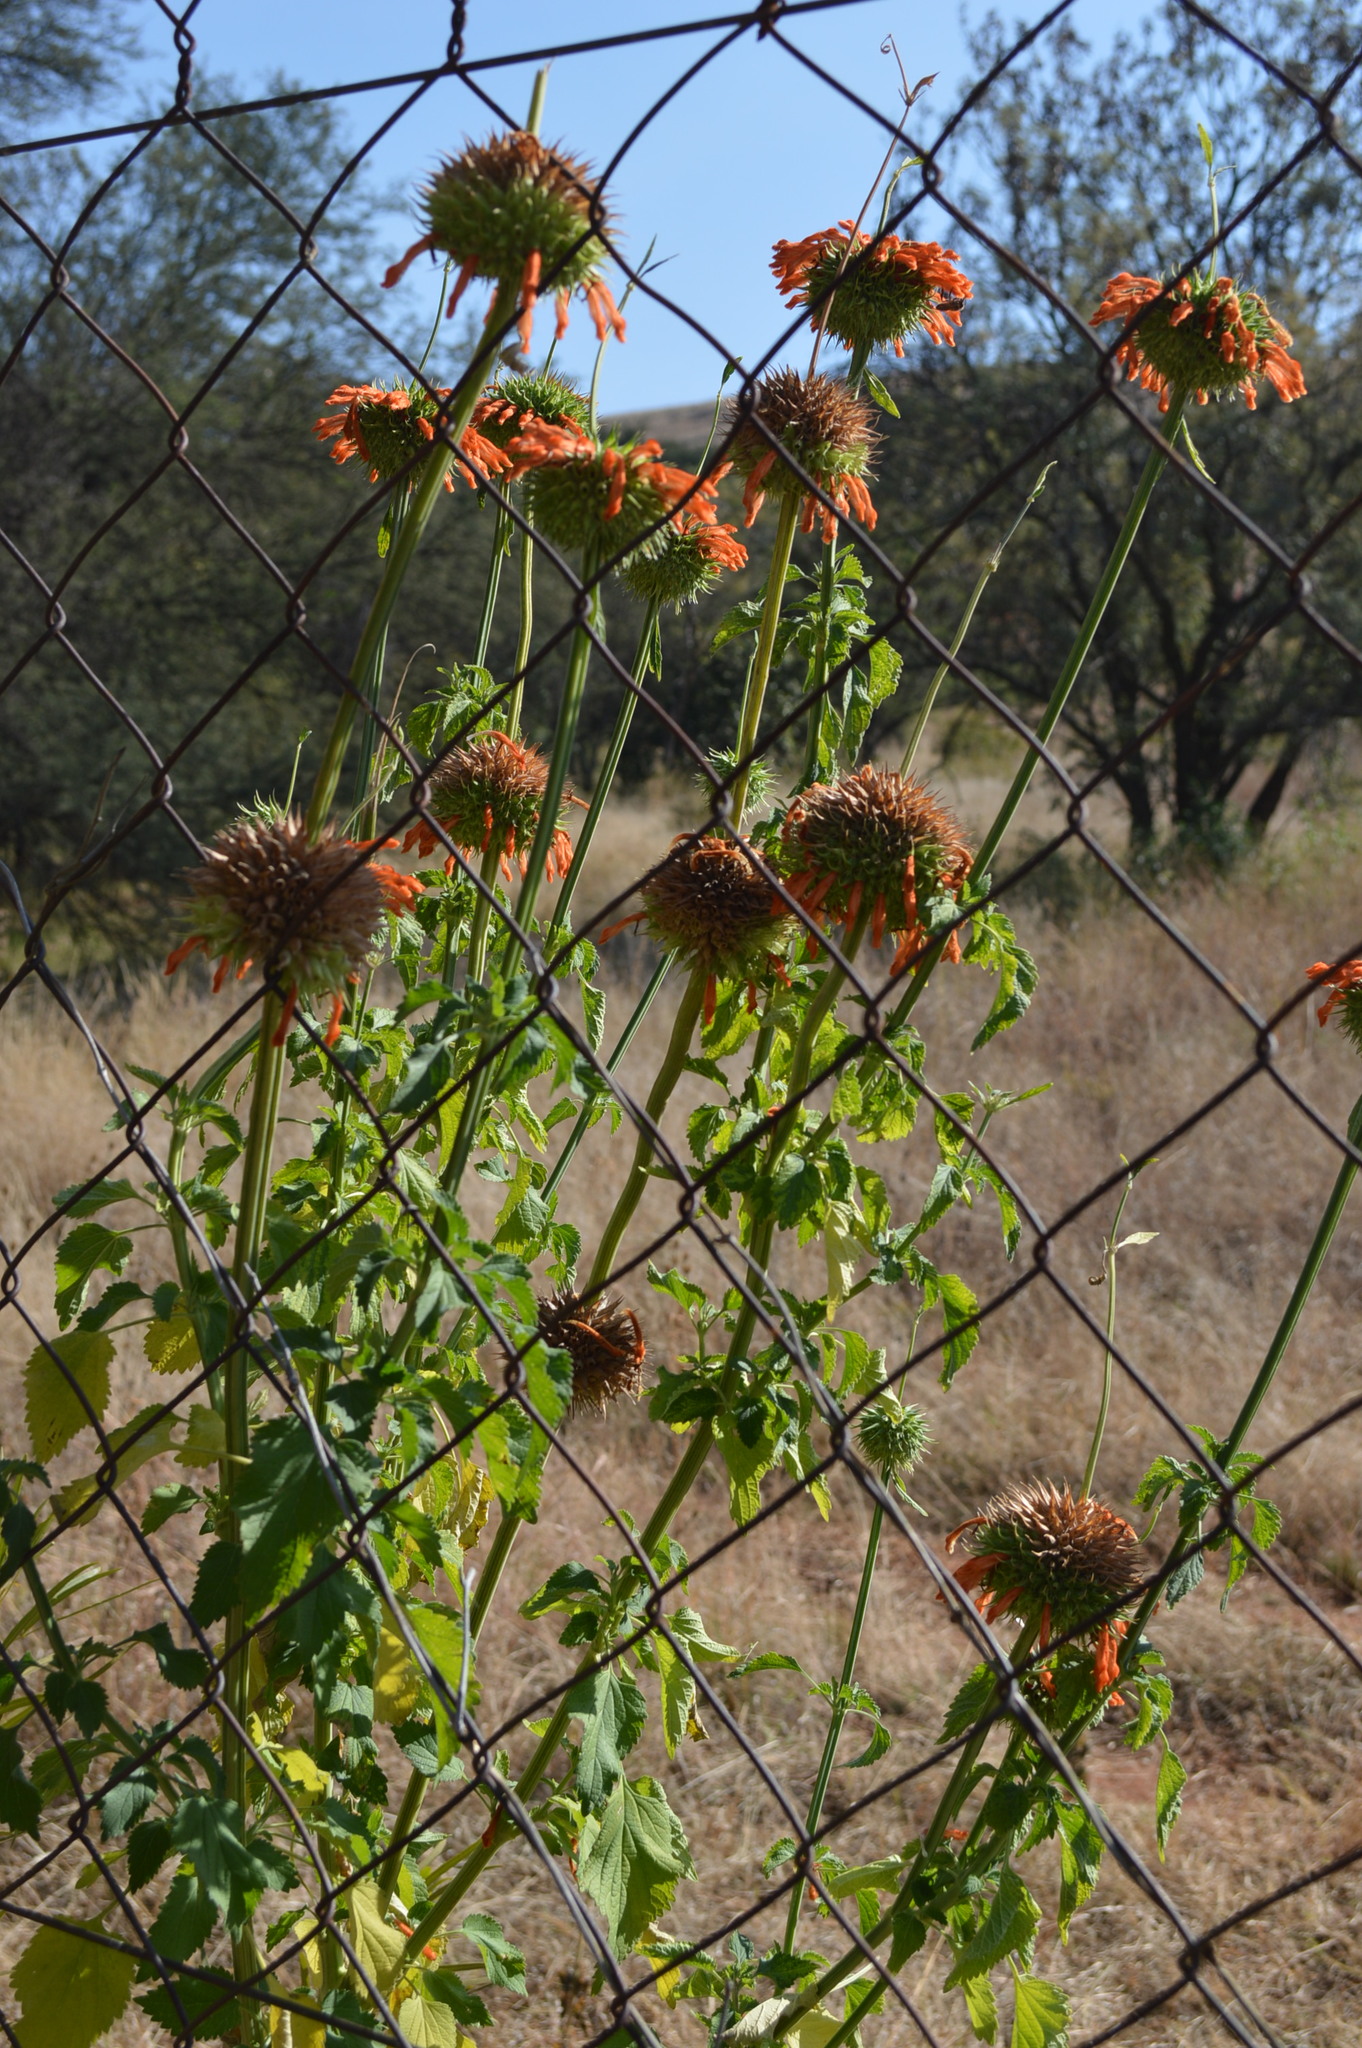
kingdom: Plantae
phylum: Tracheophyta
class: Magnoliopsida
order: Lamiales
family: Lamiaceae
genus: Leonotis
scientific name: Leonotis nepetifolia
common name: Christmas candlestick
